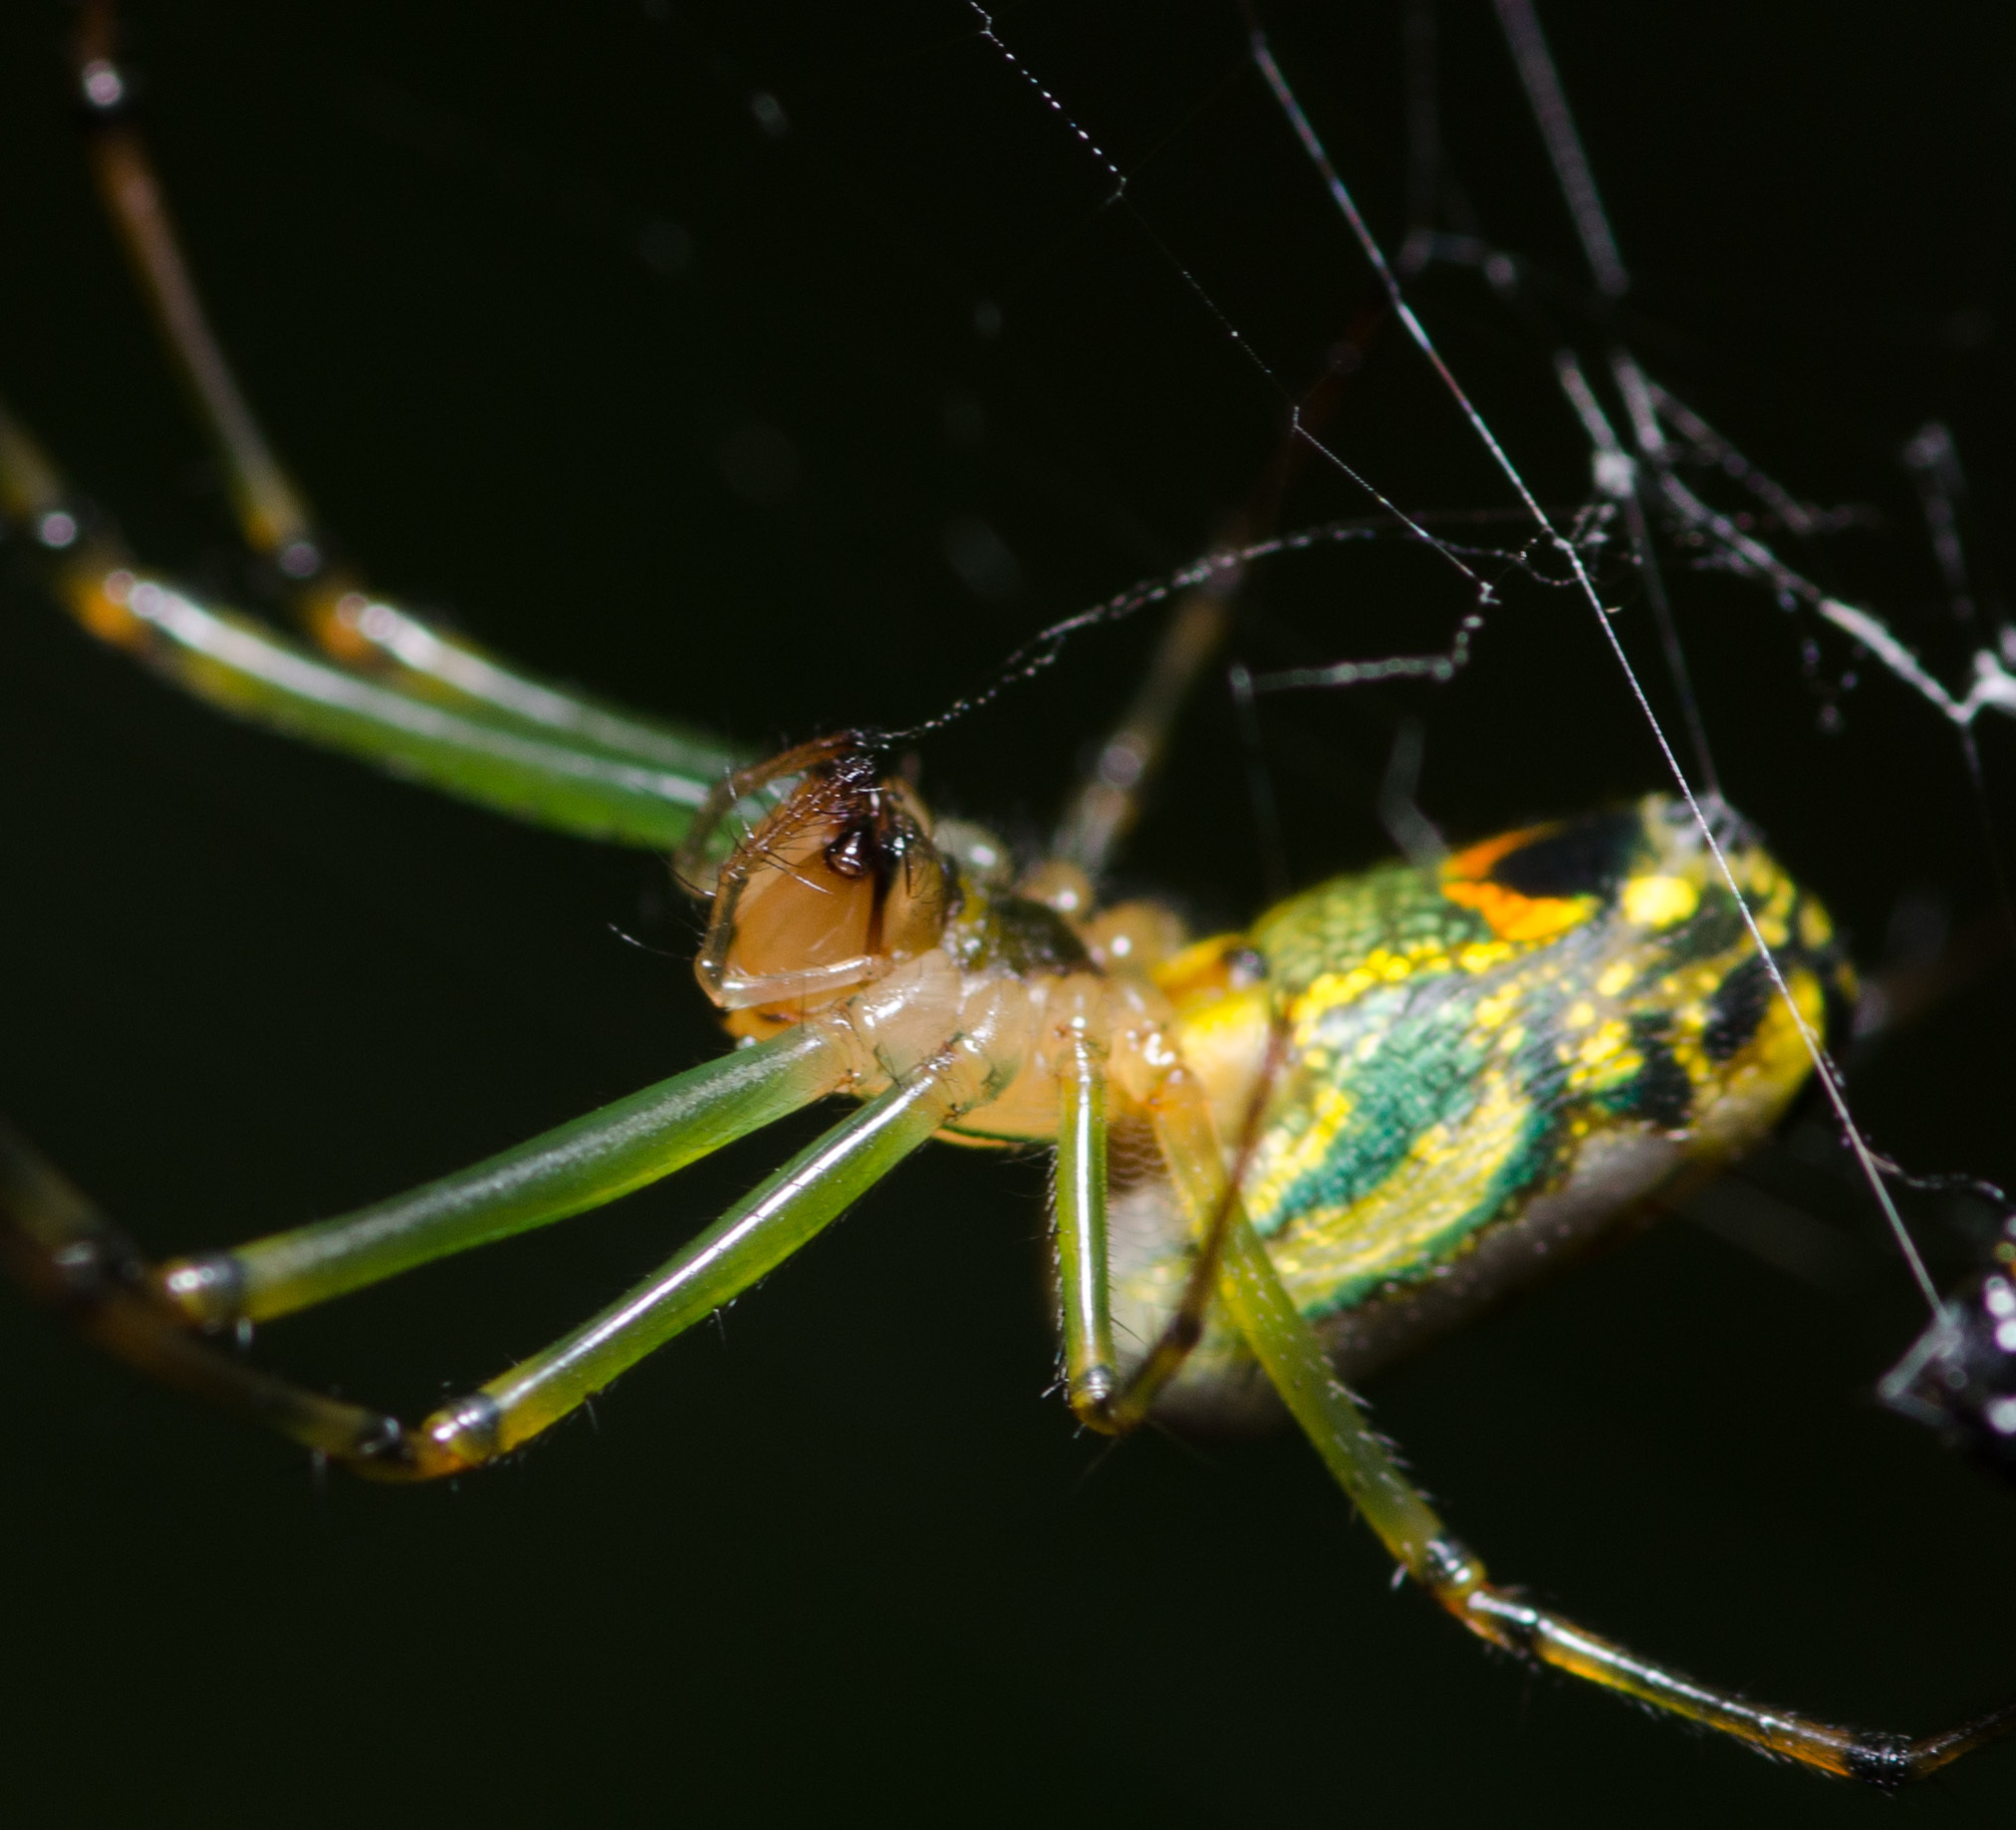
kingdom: Animalia
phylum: Arthropoda
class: Arachnida
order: Araneae
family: Tetragnathidae
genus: Leucauge
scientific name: Leucauge venusta
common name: Longjawed orb weavers
